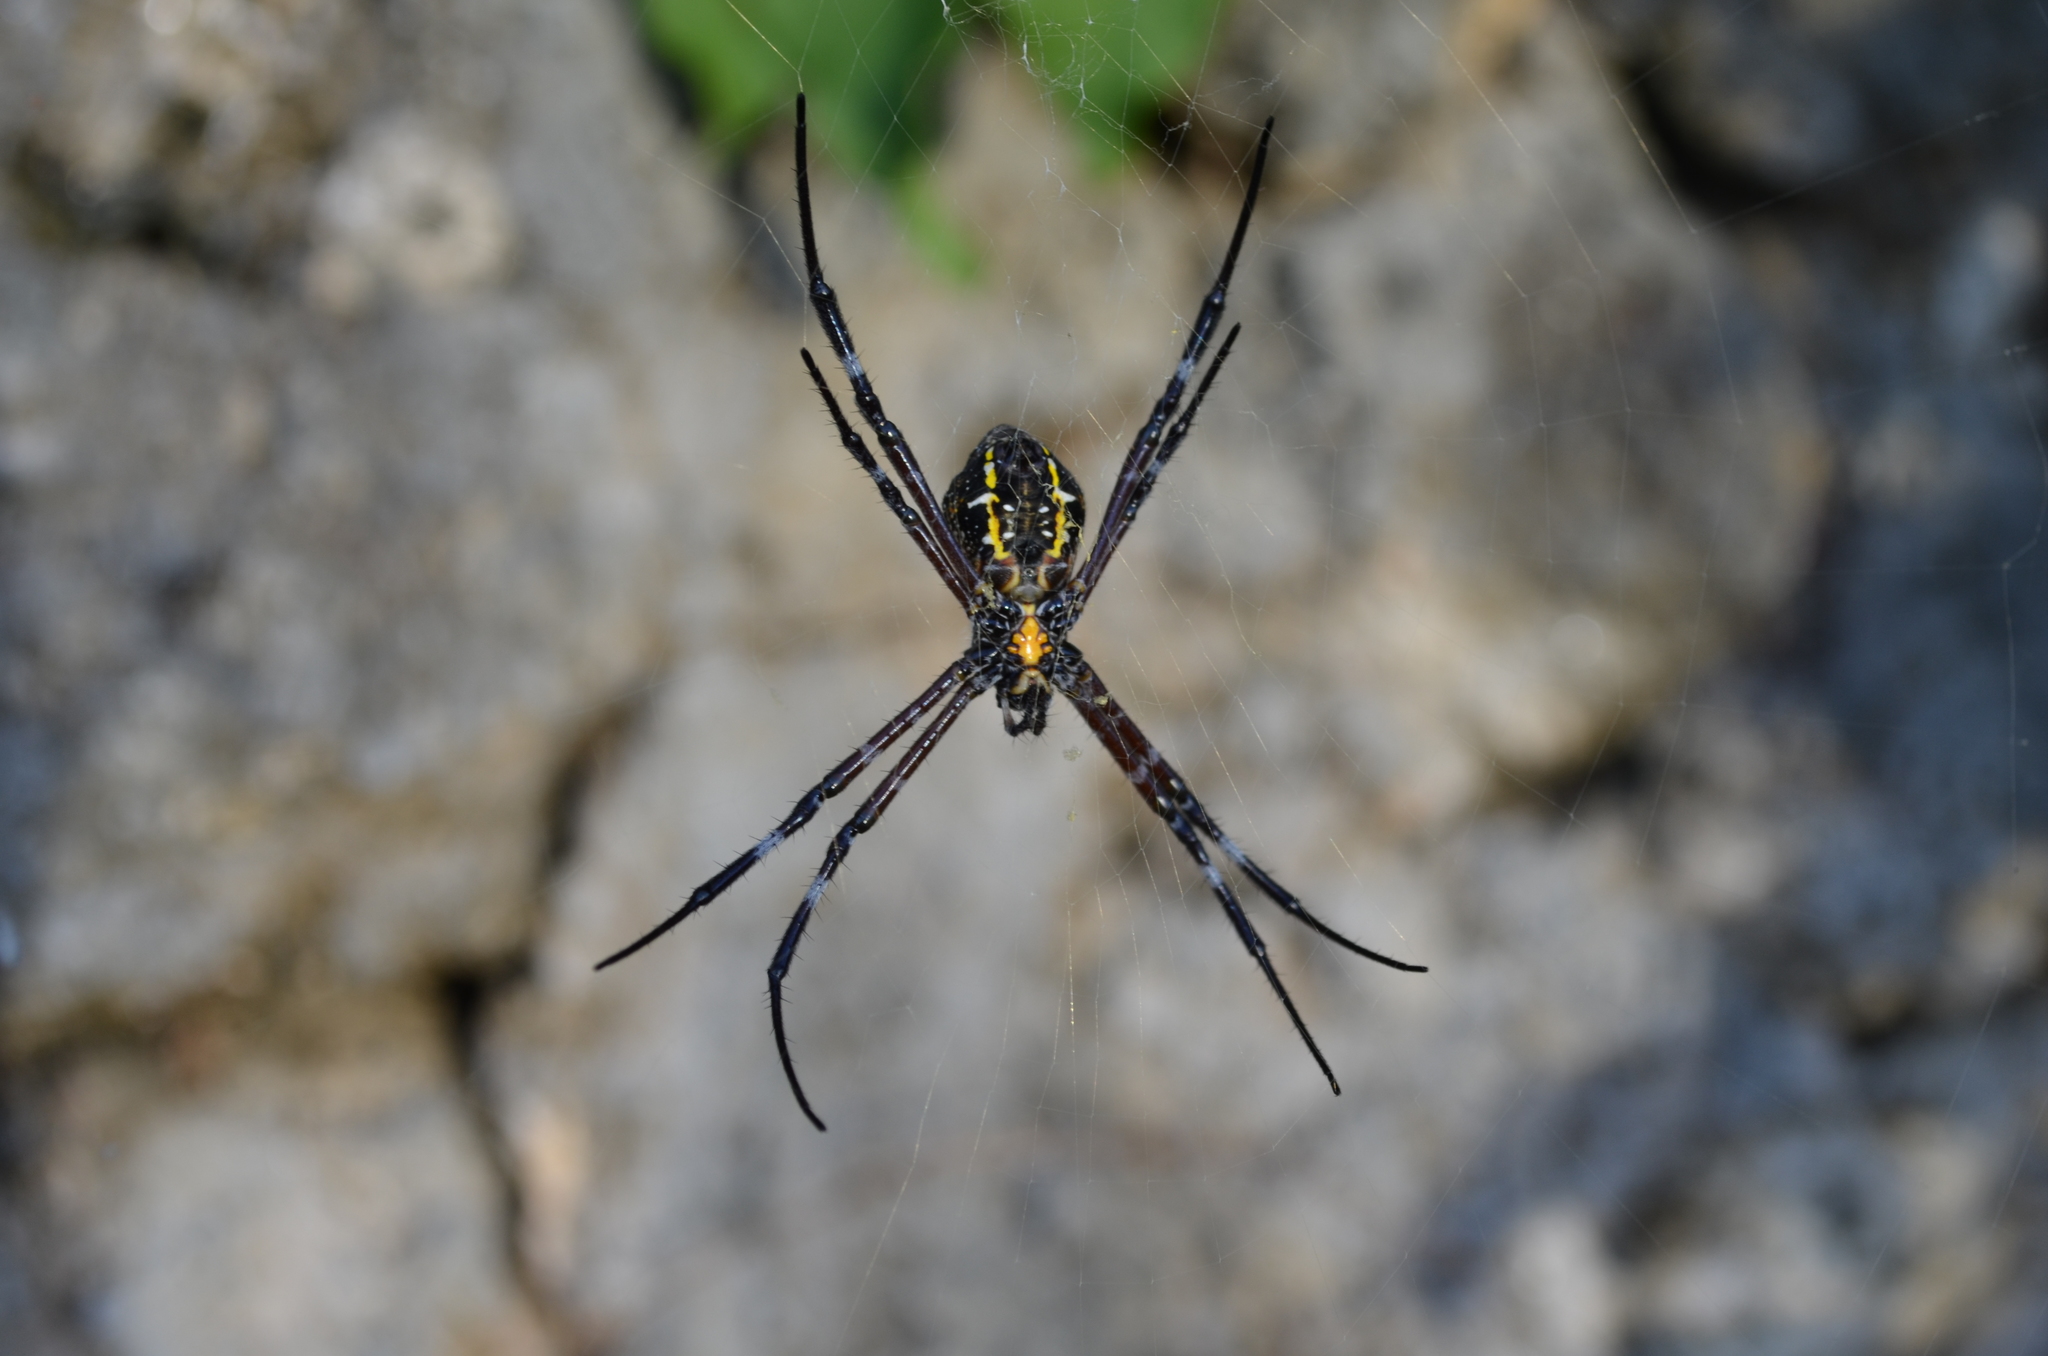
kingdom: Animalia
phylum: Arthropoda
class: Arachnida
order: Araneae
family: Araneidae
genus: Argiope
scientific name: Argiope appensa
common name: Garden spider
